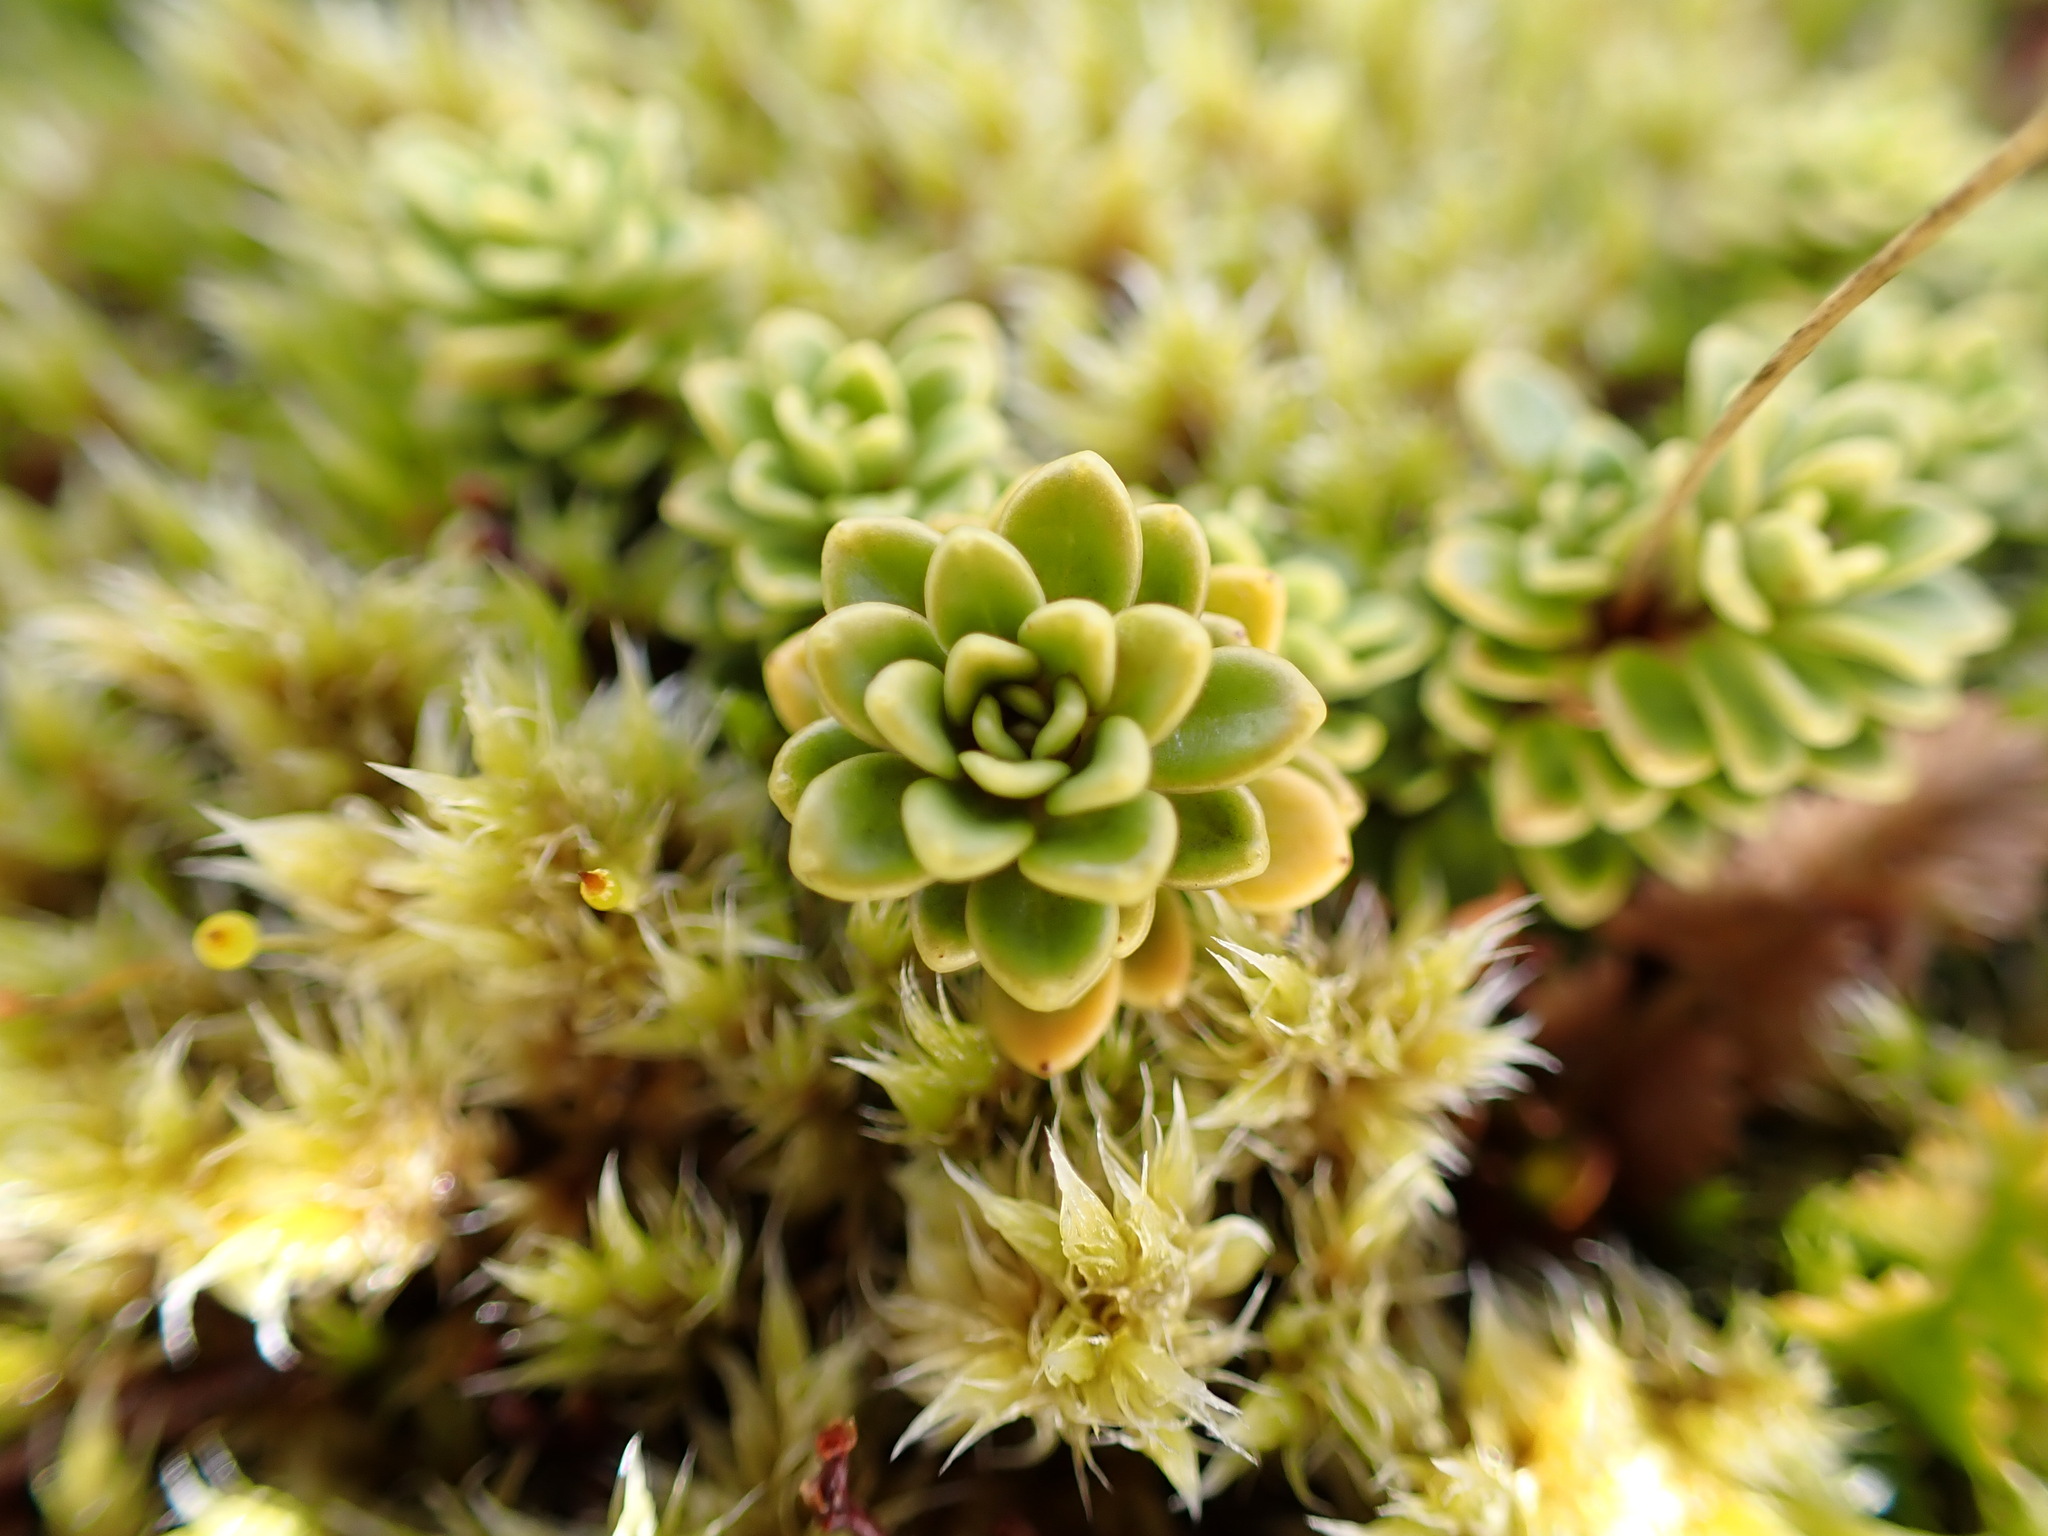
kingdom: Plantae
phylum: Tracheophyta
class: Magnoliopsida
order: Asterales
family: Stylidiaceae
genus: Forstera
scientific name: Forstera tenella
